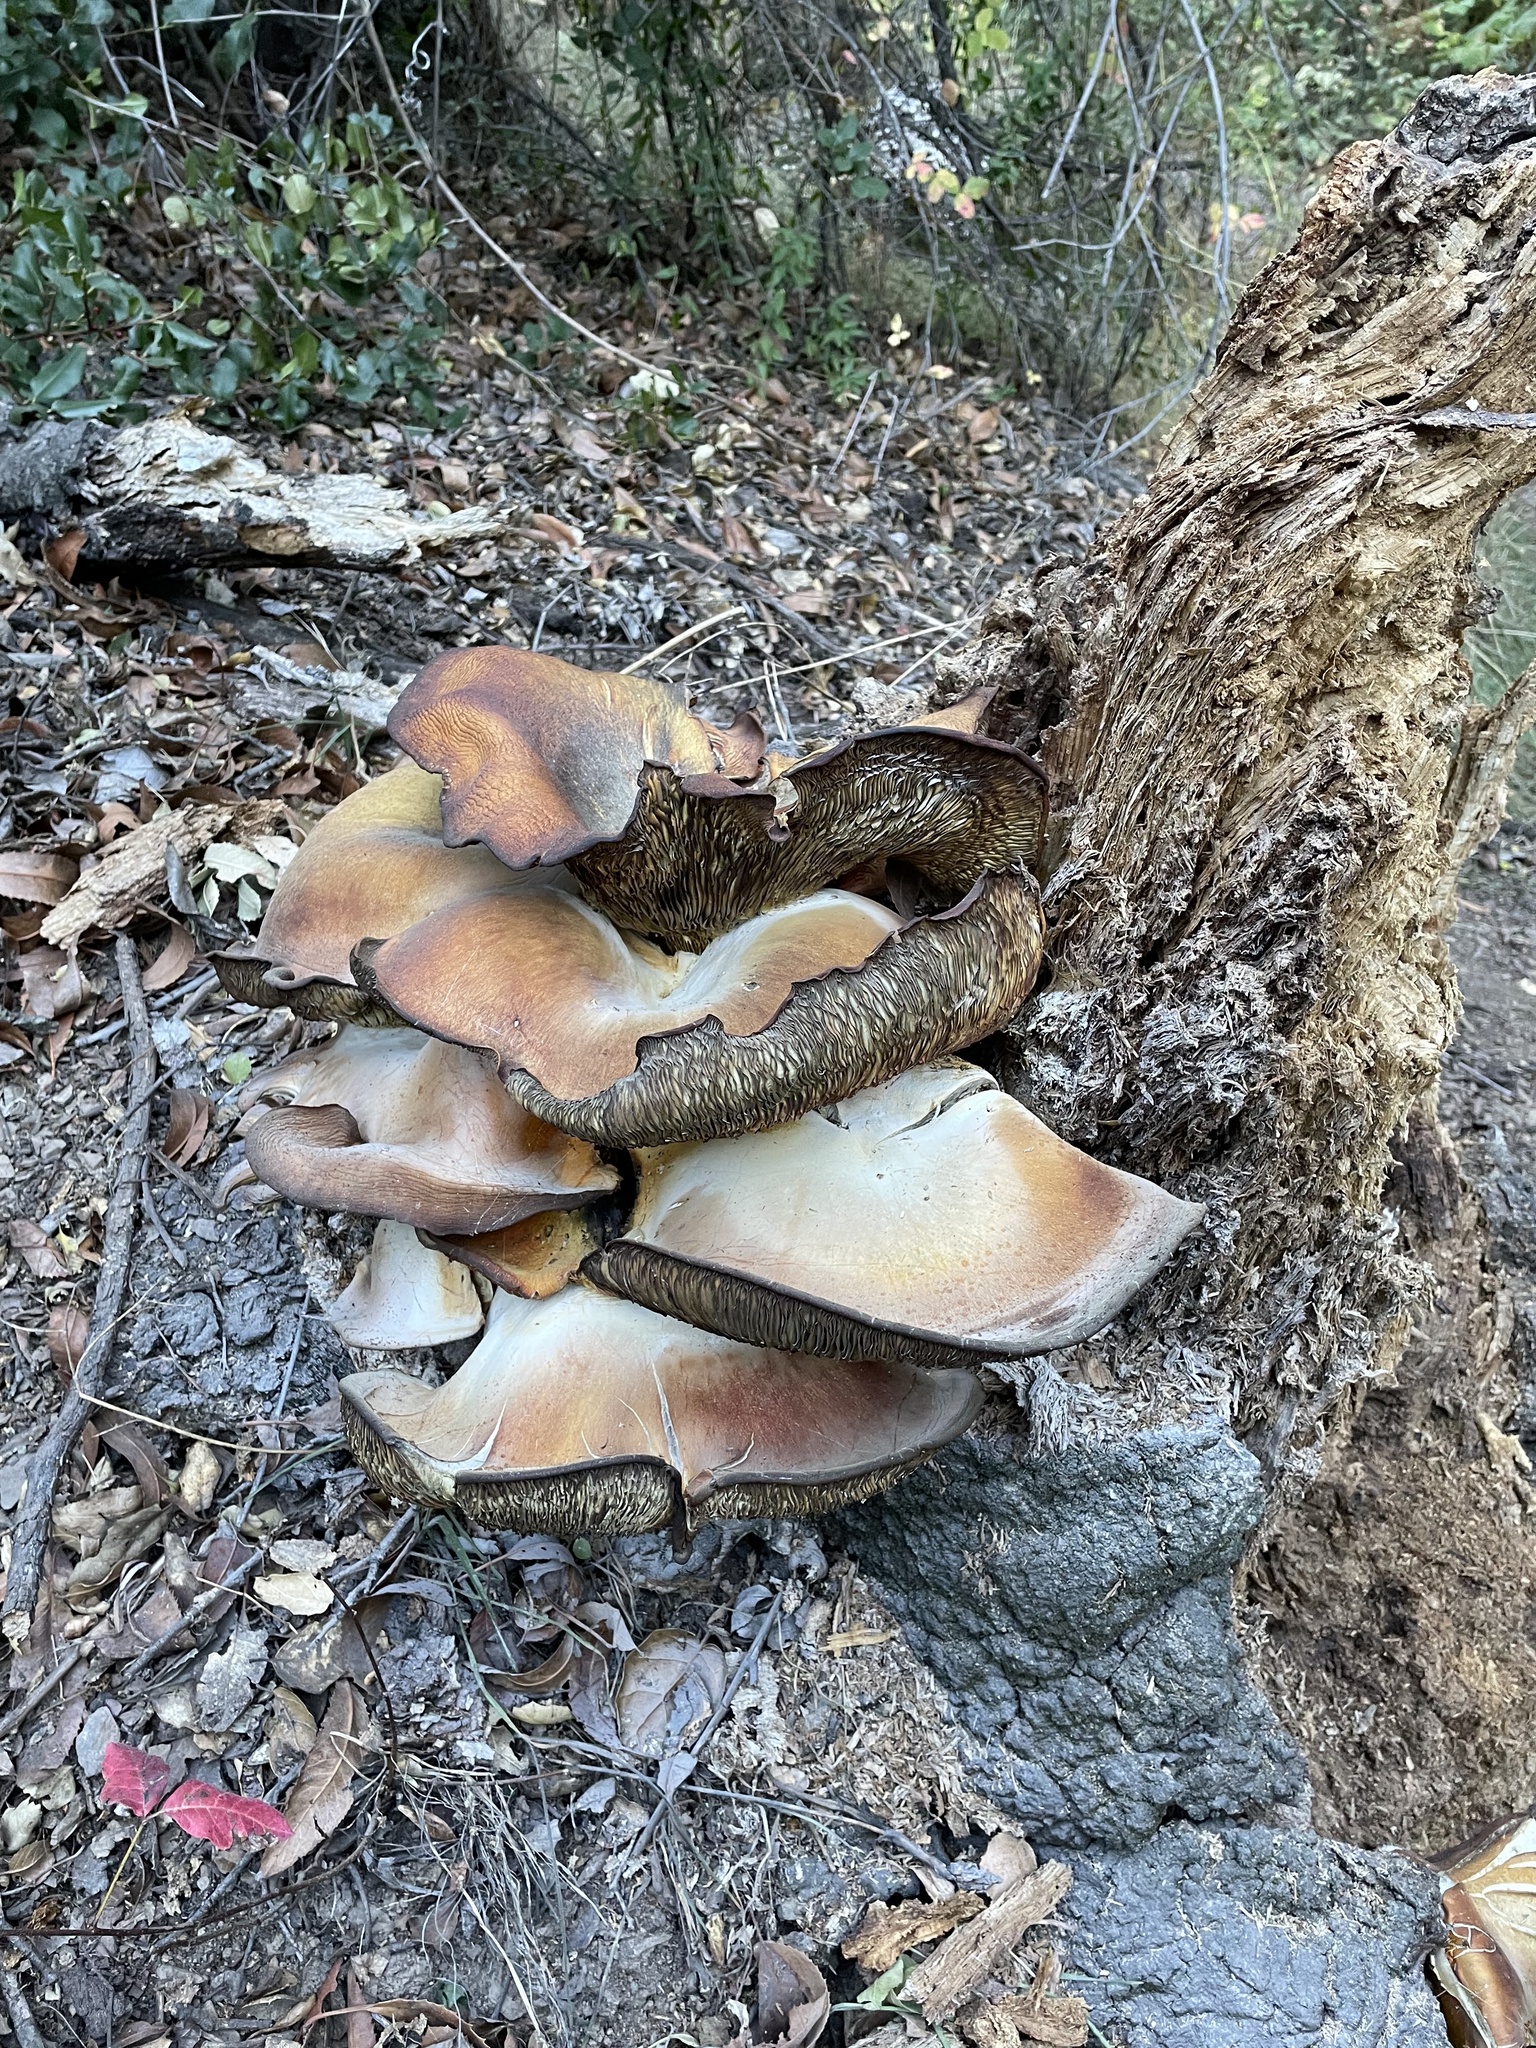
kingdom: Fungi
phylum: Basidiomycota
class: Agaricomycetes
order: Agaricales
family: Omphalotaceae
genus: Omphalotus
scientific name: Omphalotus olivascens
